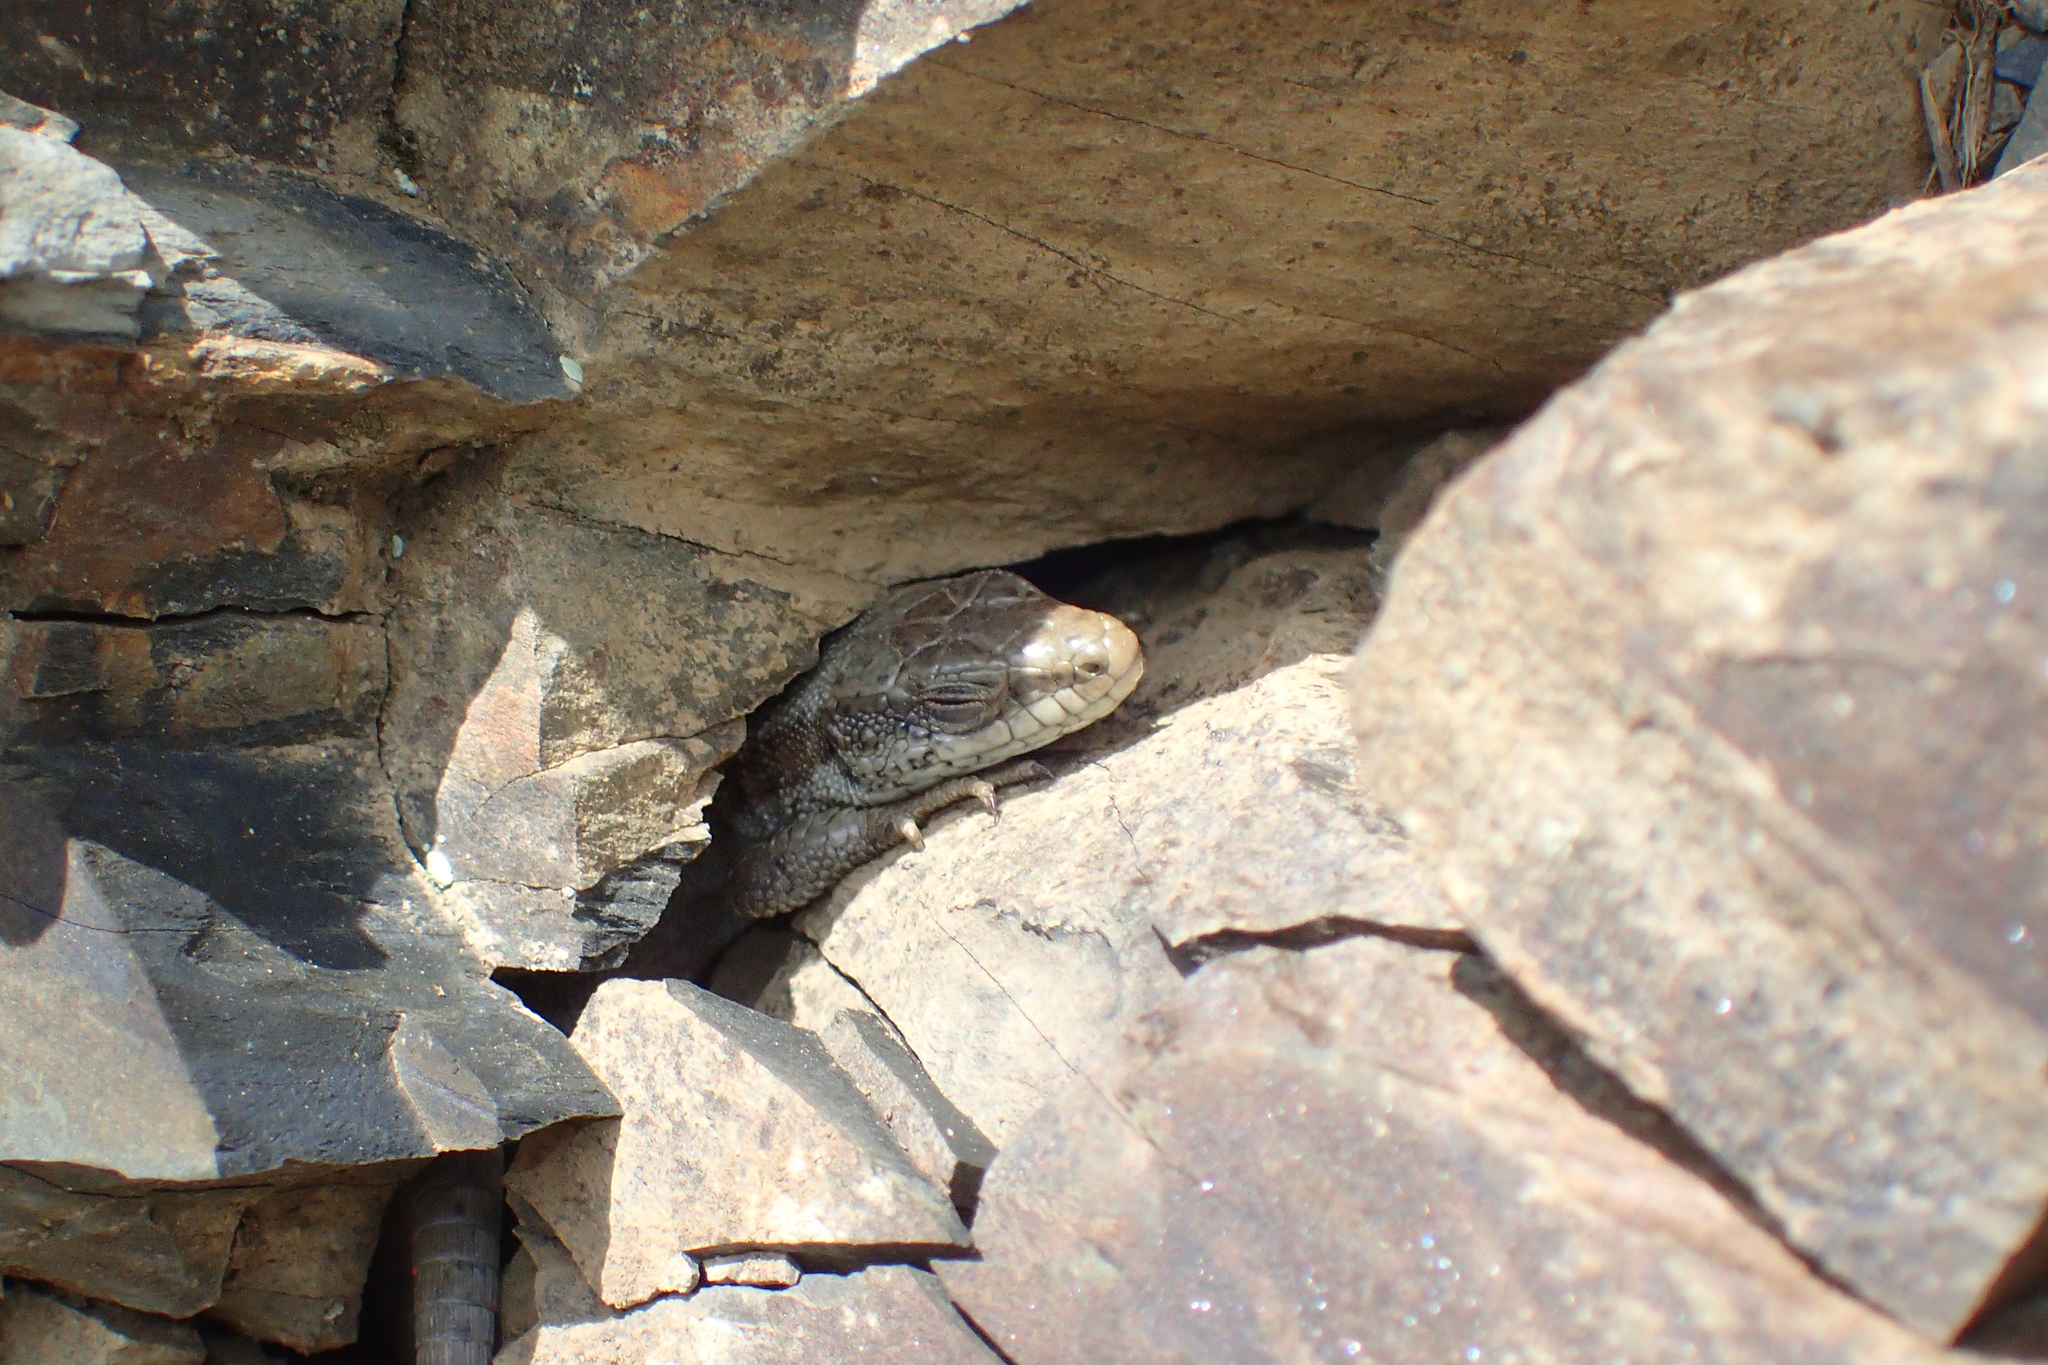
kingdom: Animalia
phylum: Chordata
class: Squamata
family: Lacertidae
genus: Iberolacerta
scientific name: Iberolacerta bonnali
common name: Pyrenean rock lizard
